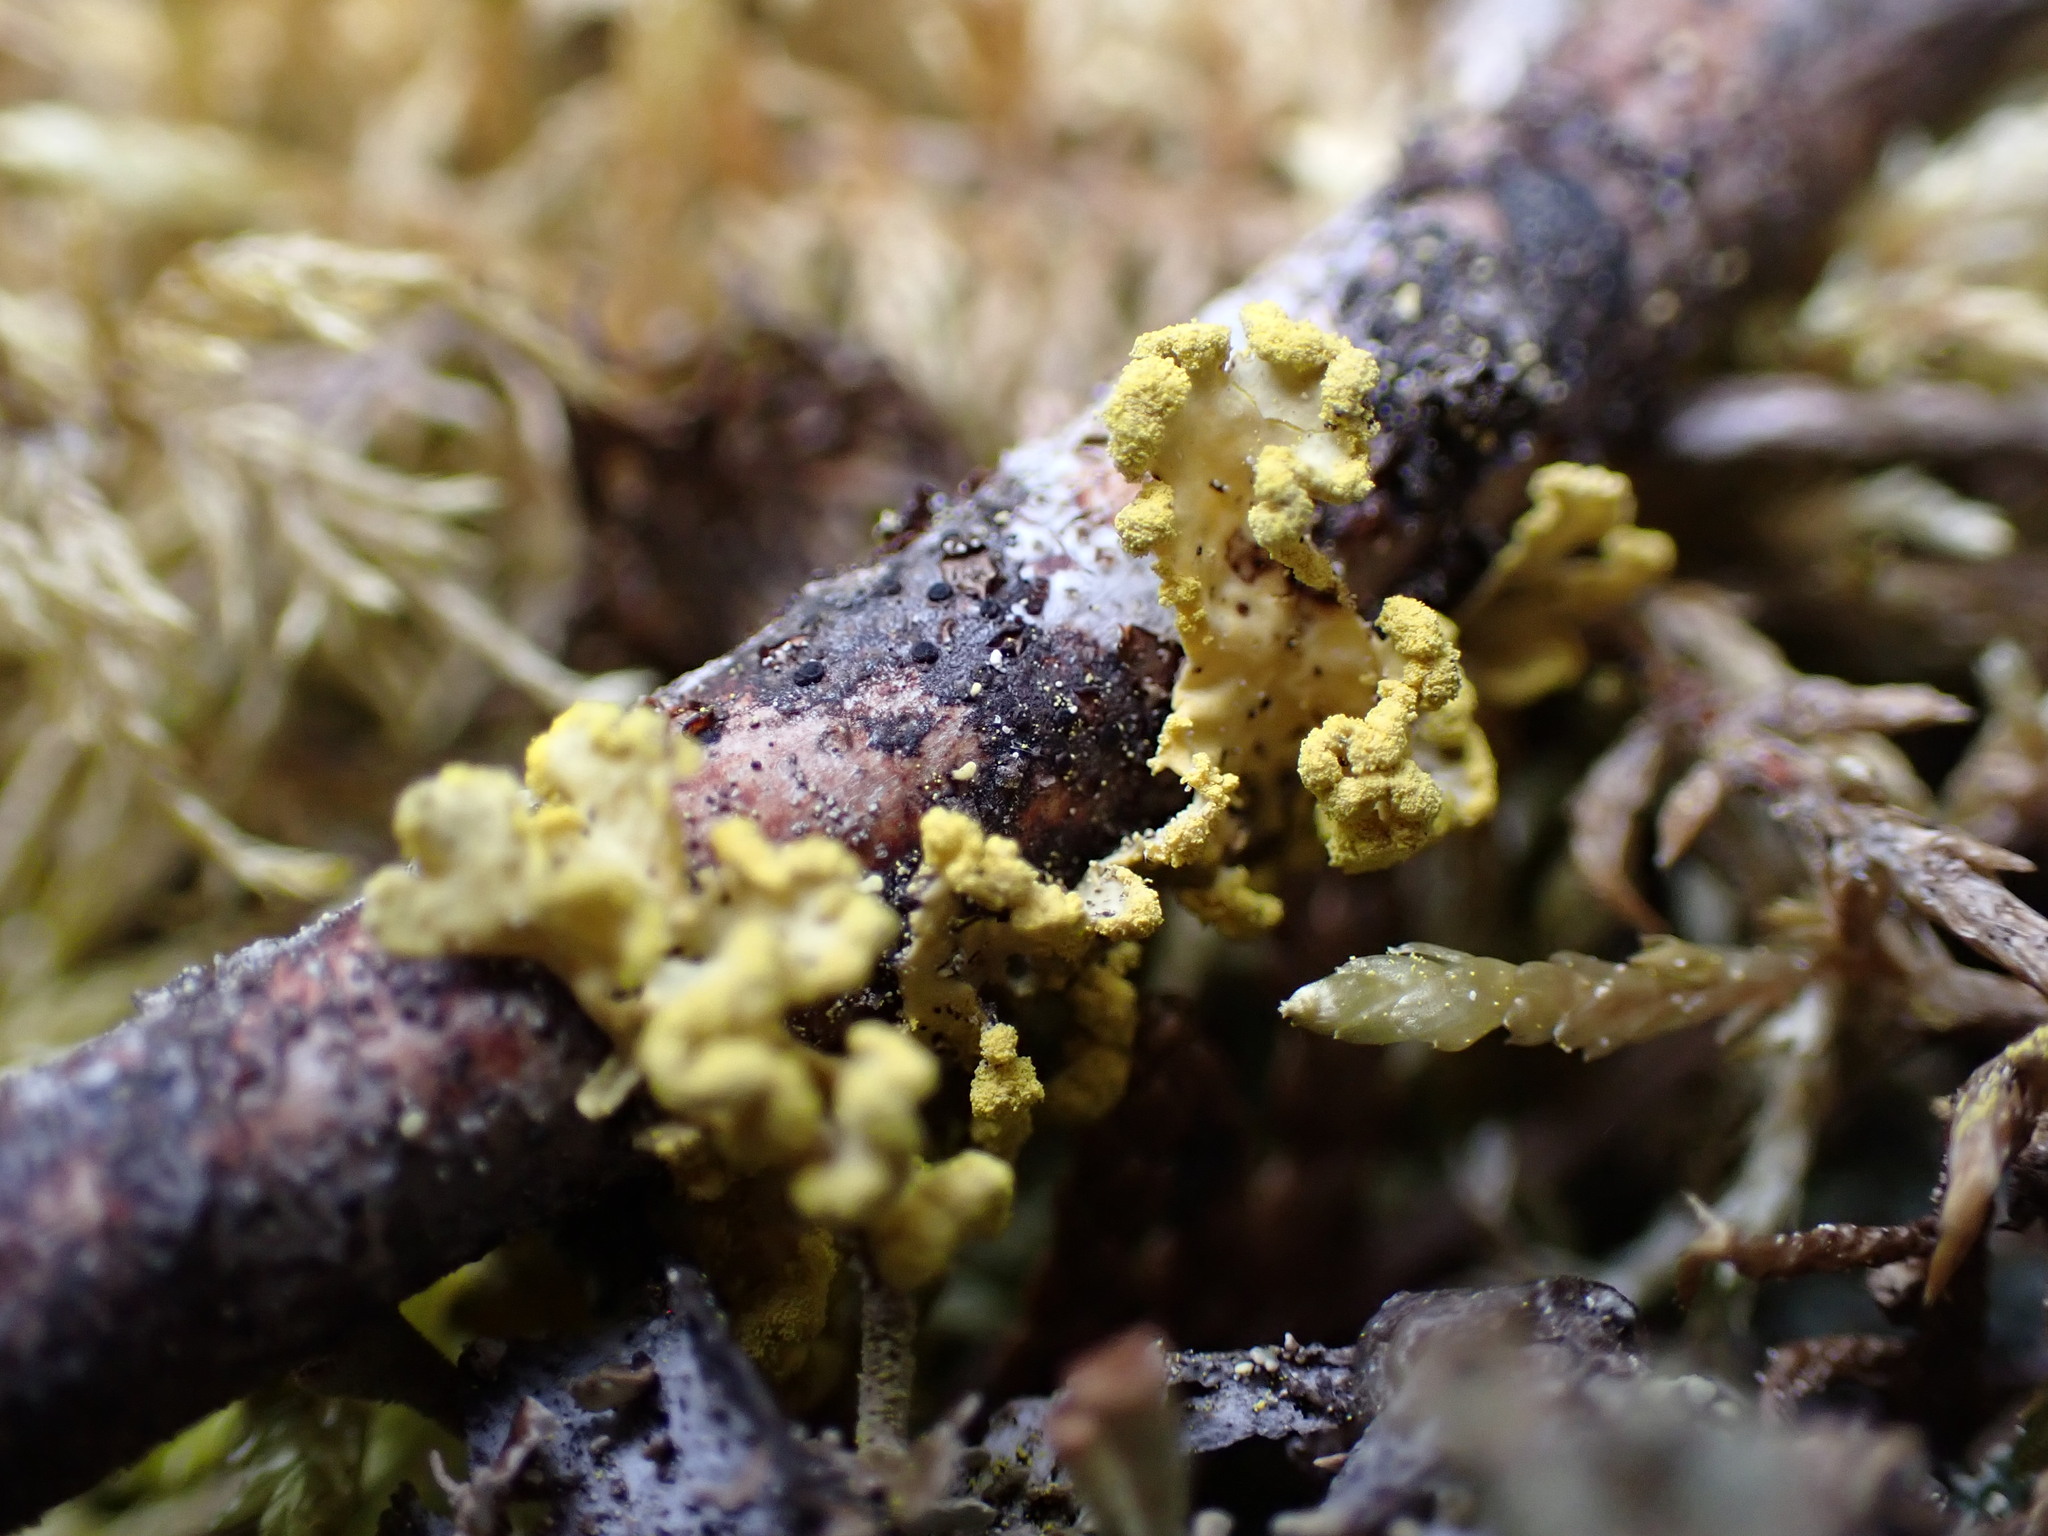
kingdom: Fungi
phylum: Ascomycota
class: Lecanoromycetes
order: Lecanorales
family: Parmeliaceae
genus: Vulpicida
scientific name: Vulpicida pinastri
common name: Powdered sunshine lichen
